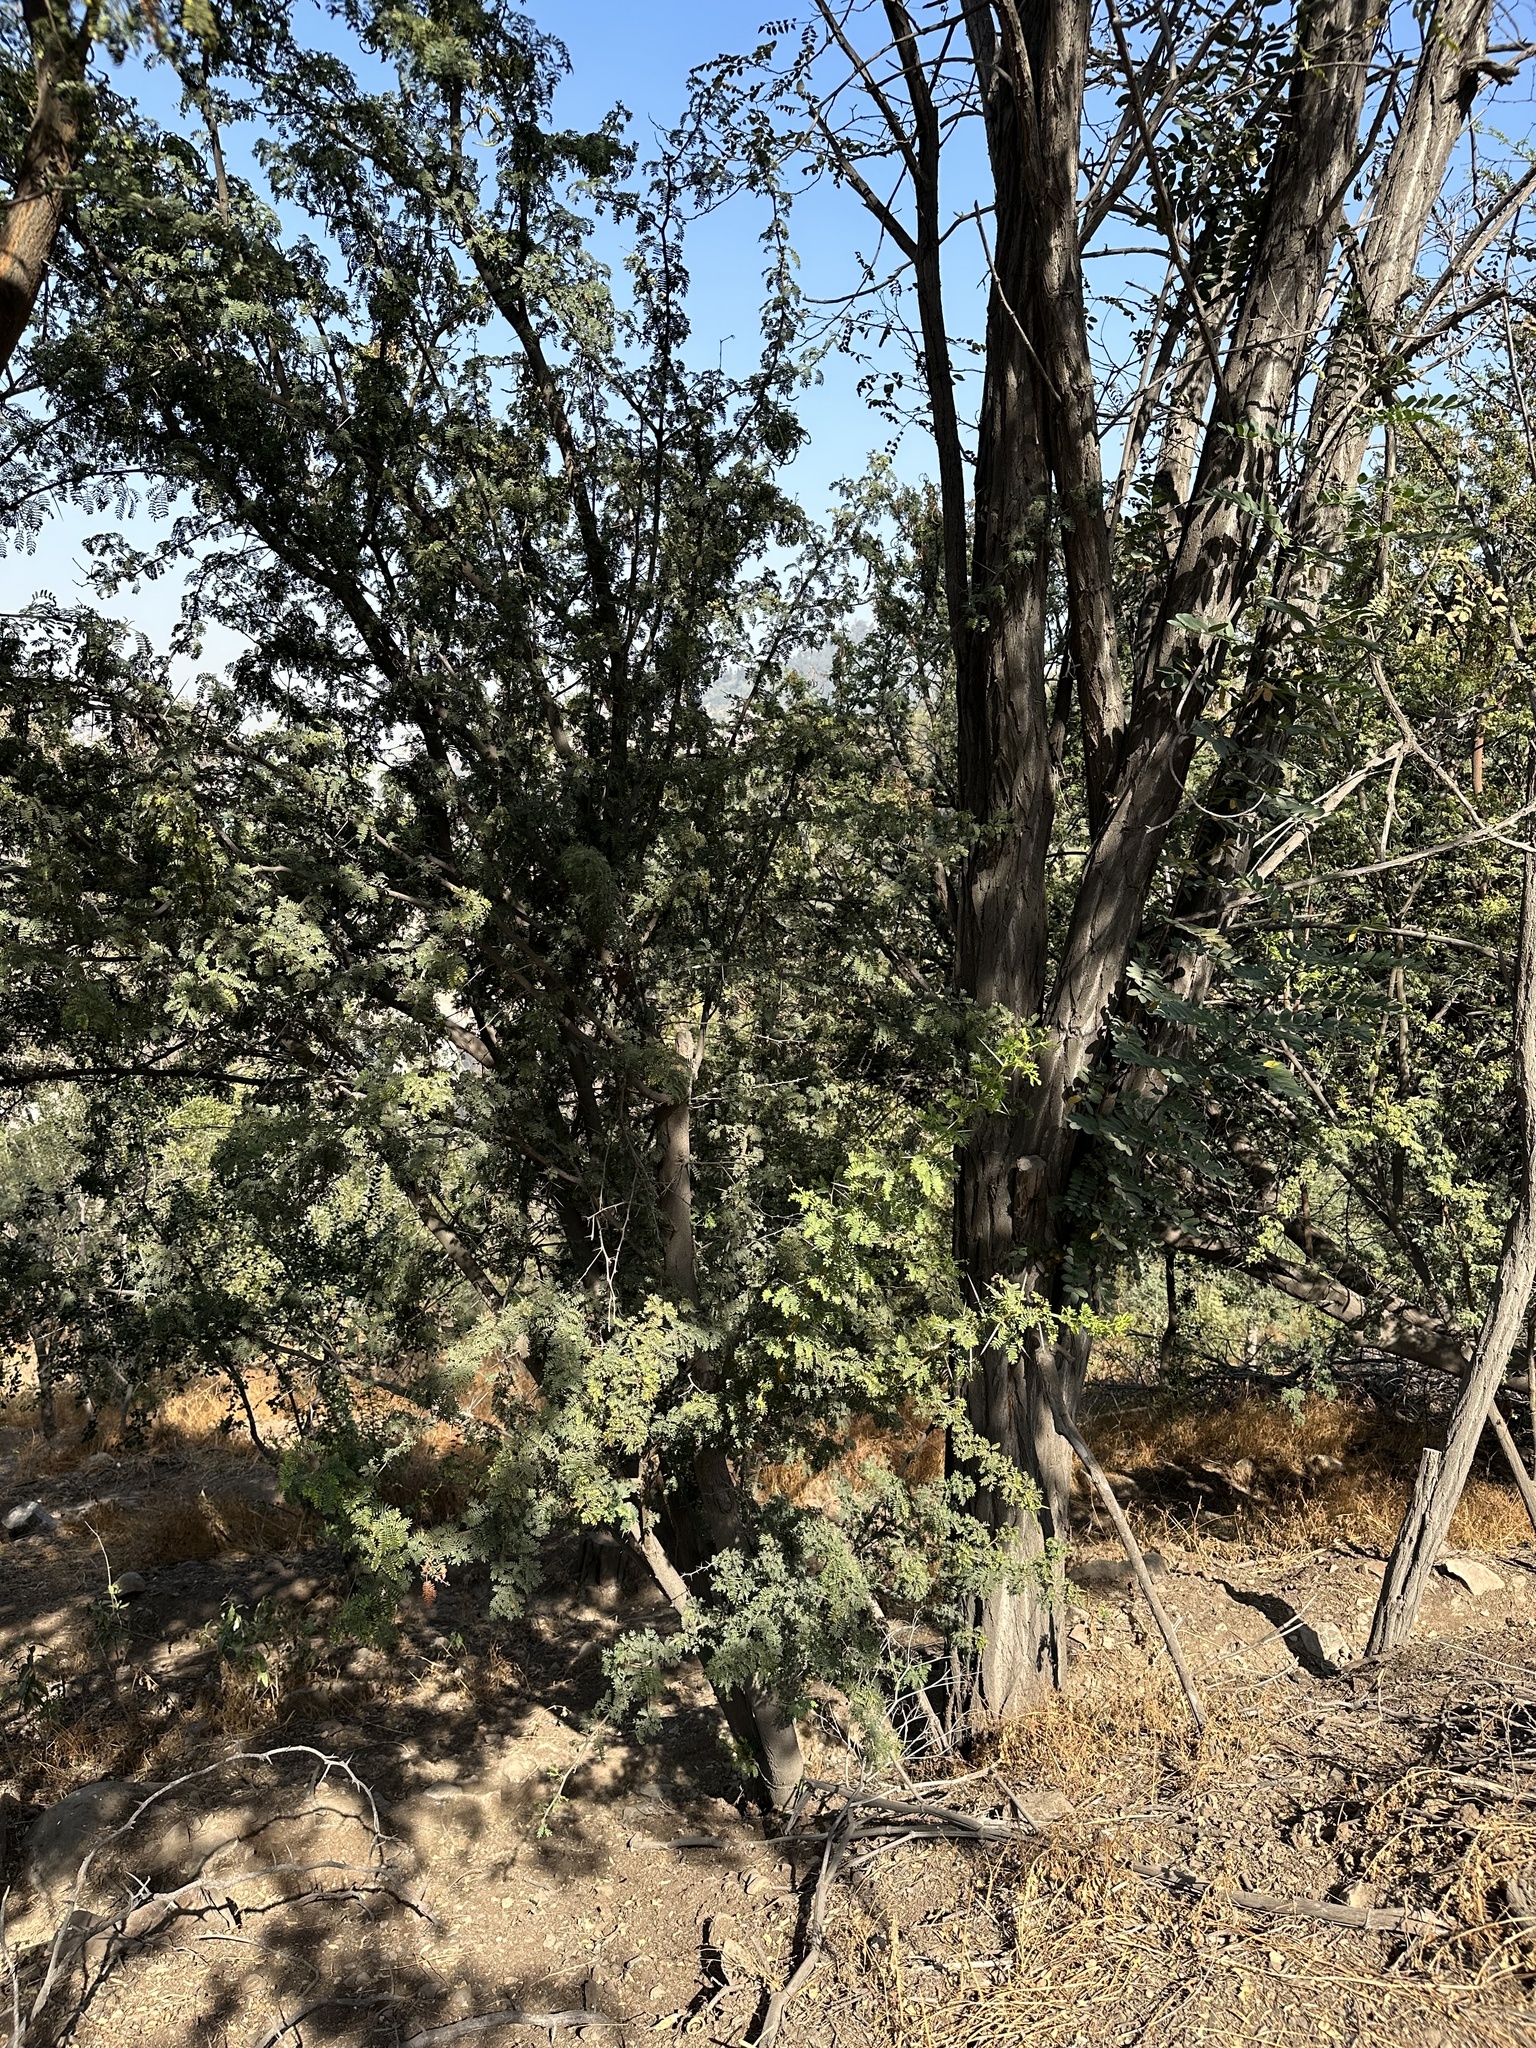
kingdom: Plantae
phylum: Tracheophyta
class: Magnoliopsida
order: Fabales
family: Fabaceae
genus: Vachellia
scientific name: Vachellia karroo
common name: Sweet thorn
